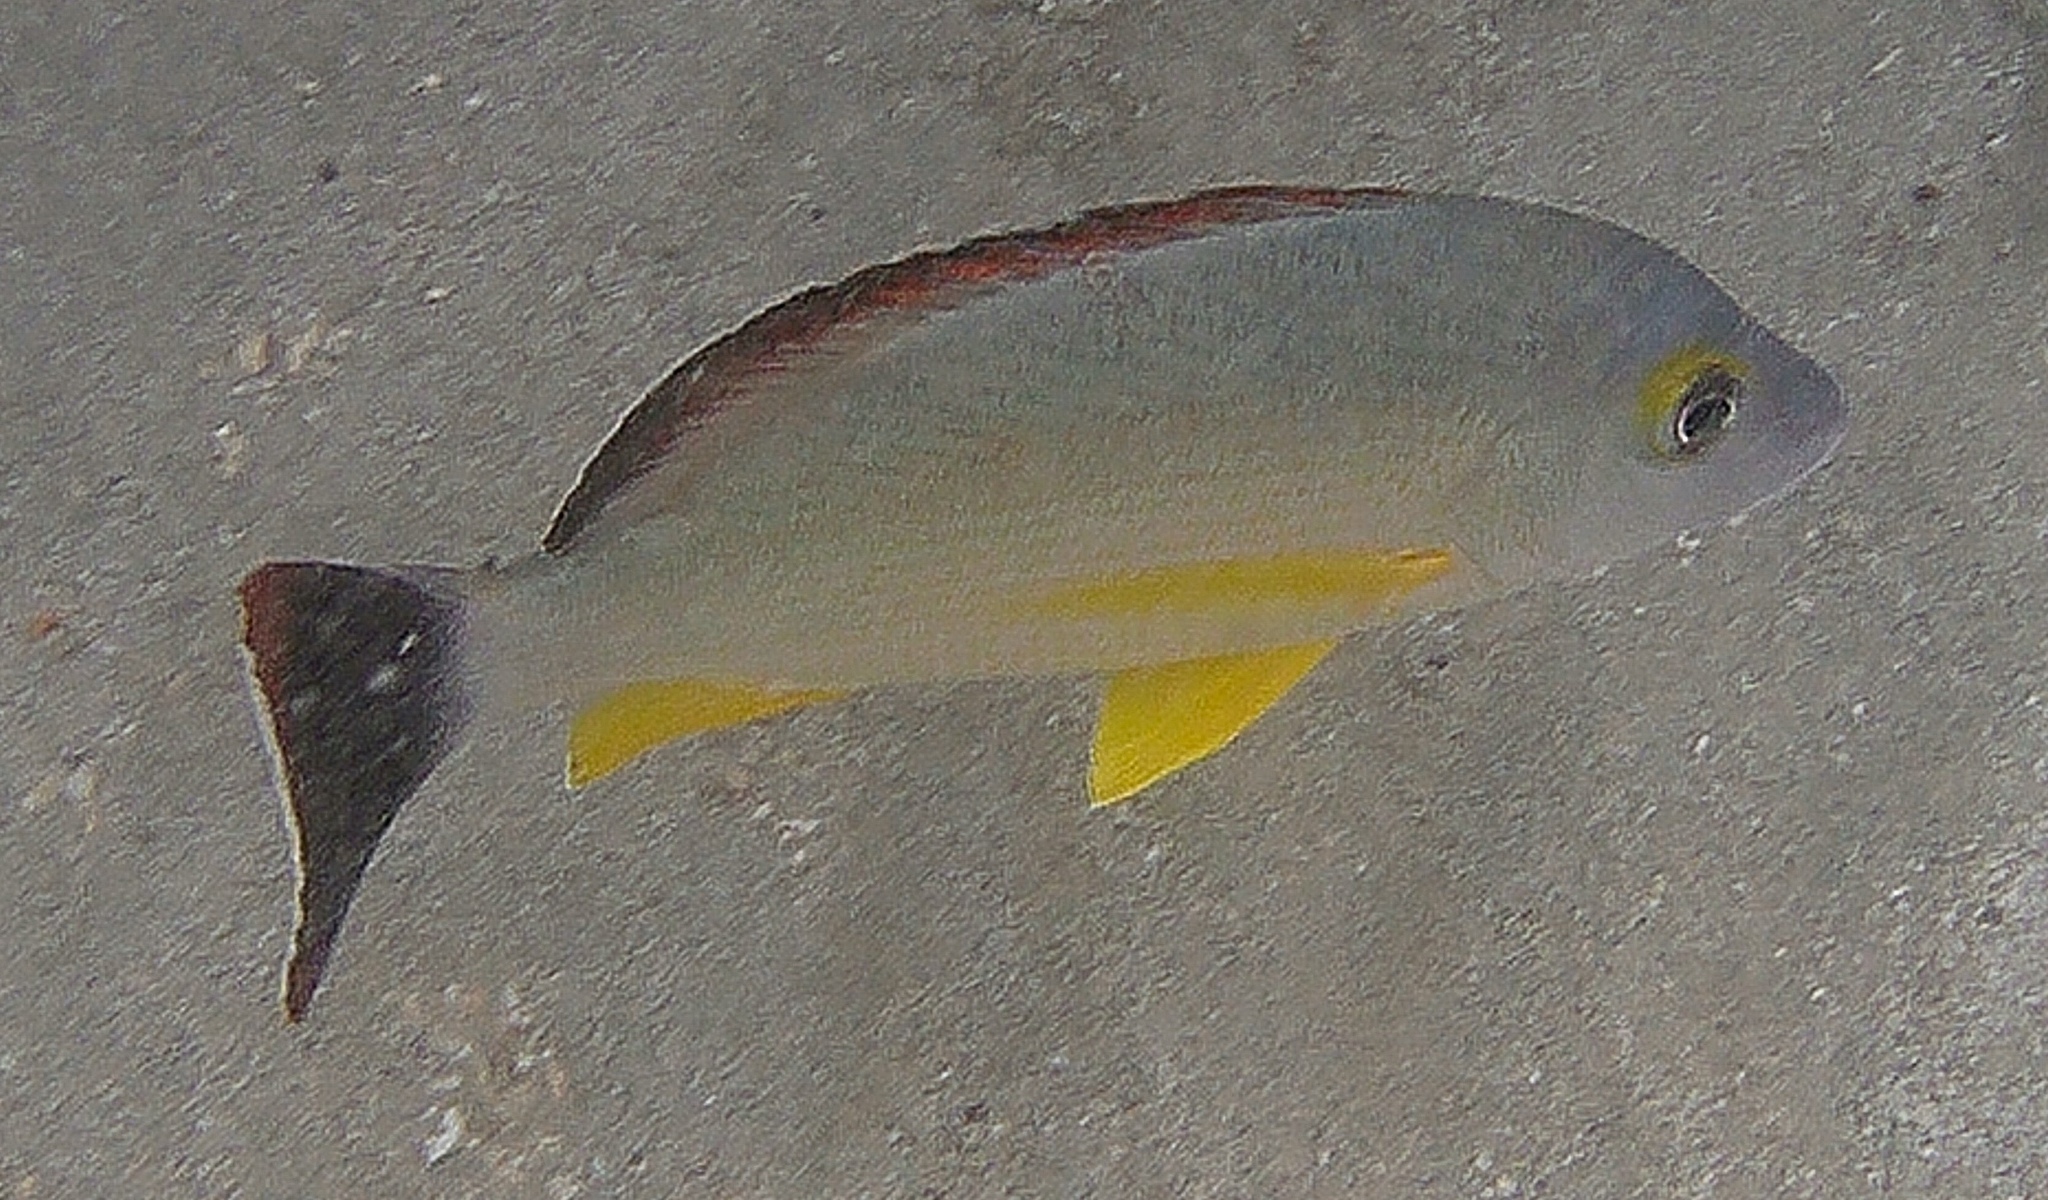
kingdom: Animalia
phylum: Chordata
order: Perciformes
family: Lutjanidae
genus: Lutjanus
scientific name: Lutjanus fulvus
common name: Blacktail snapper
